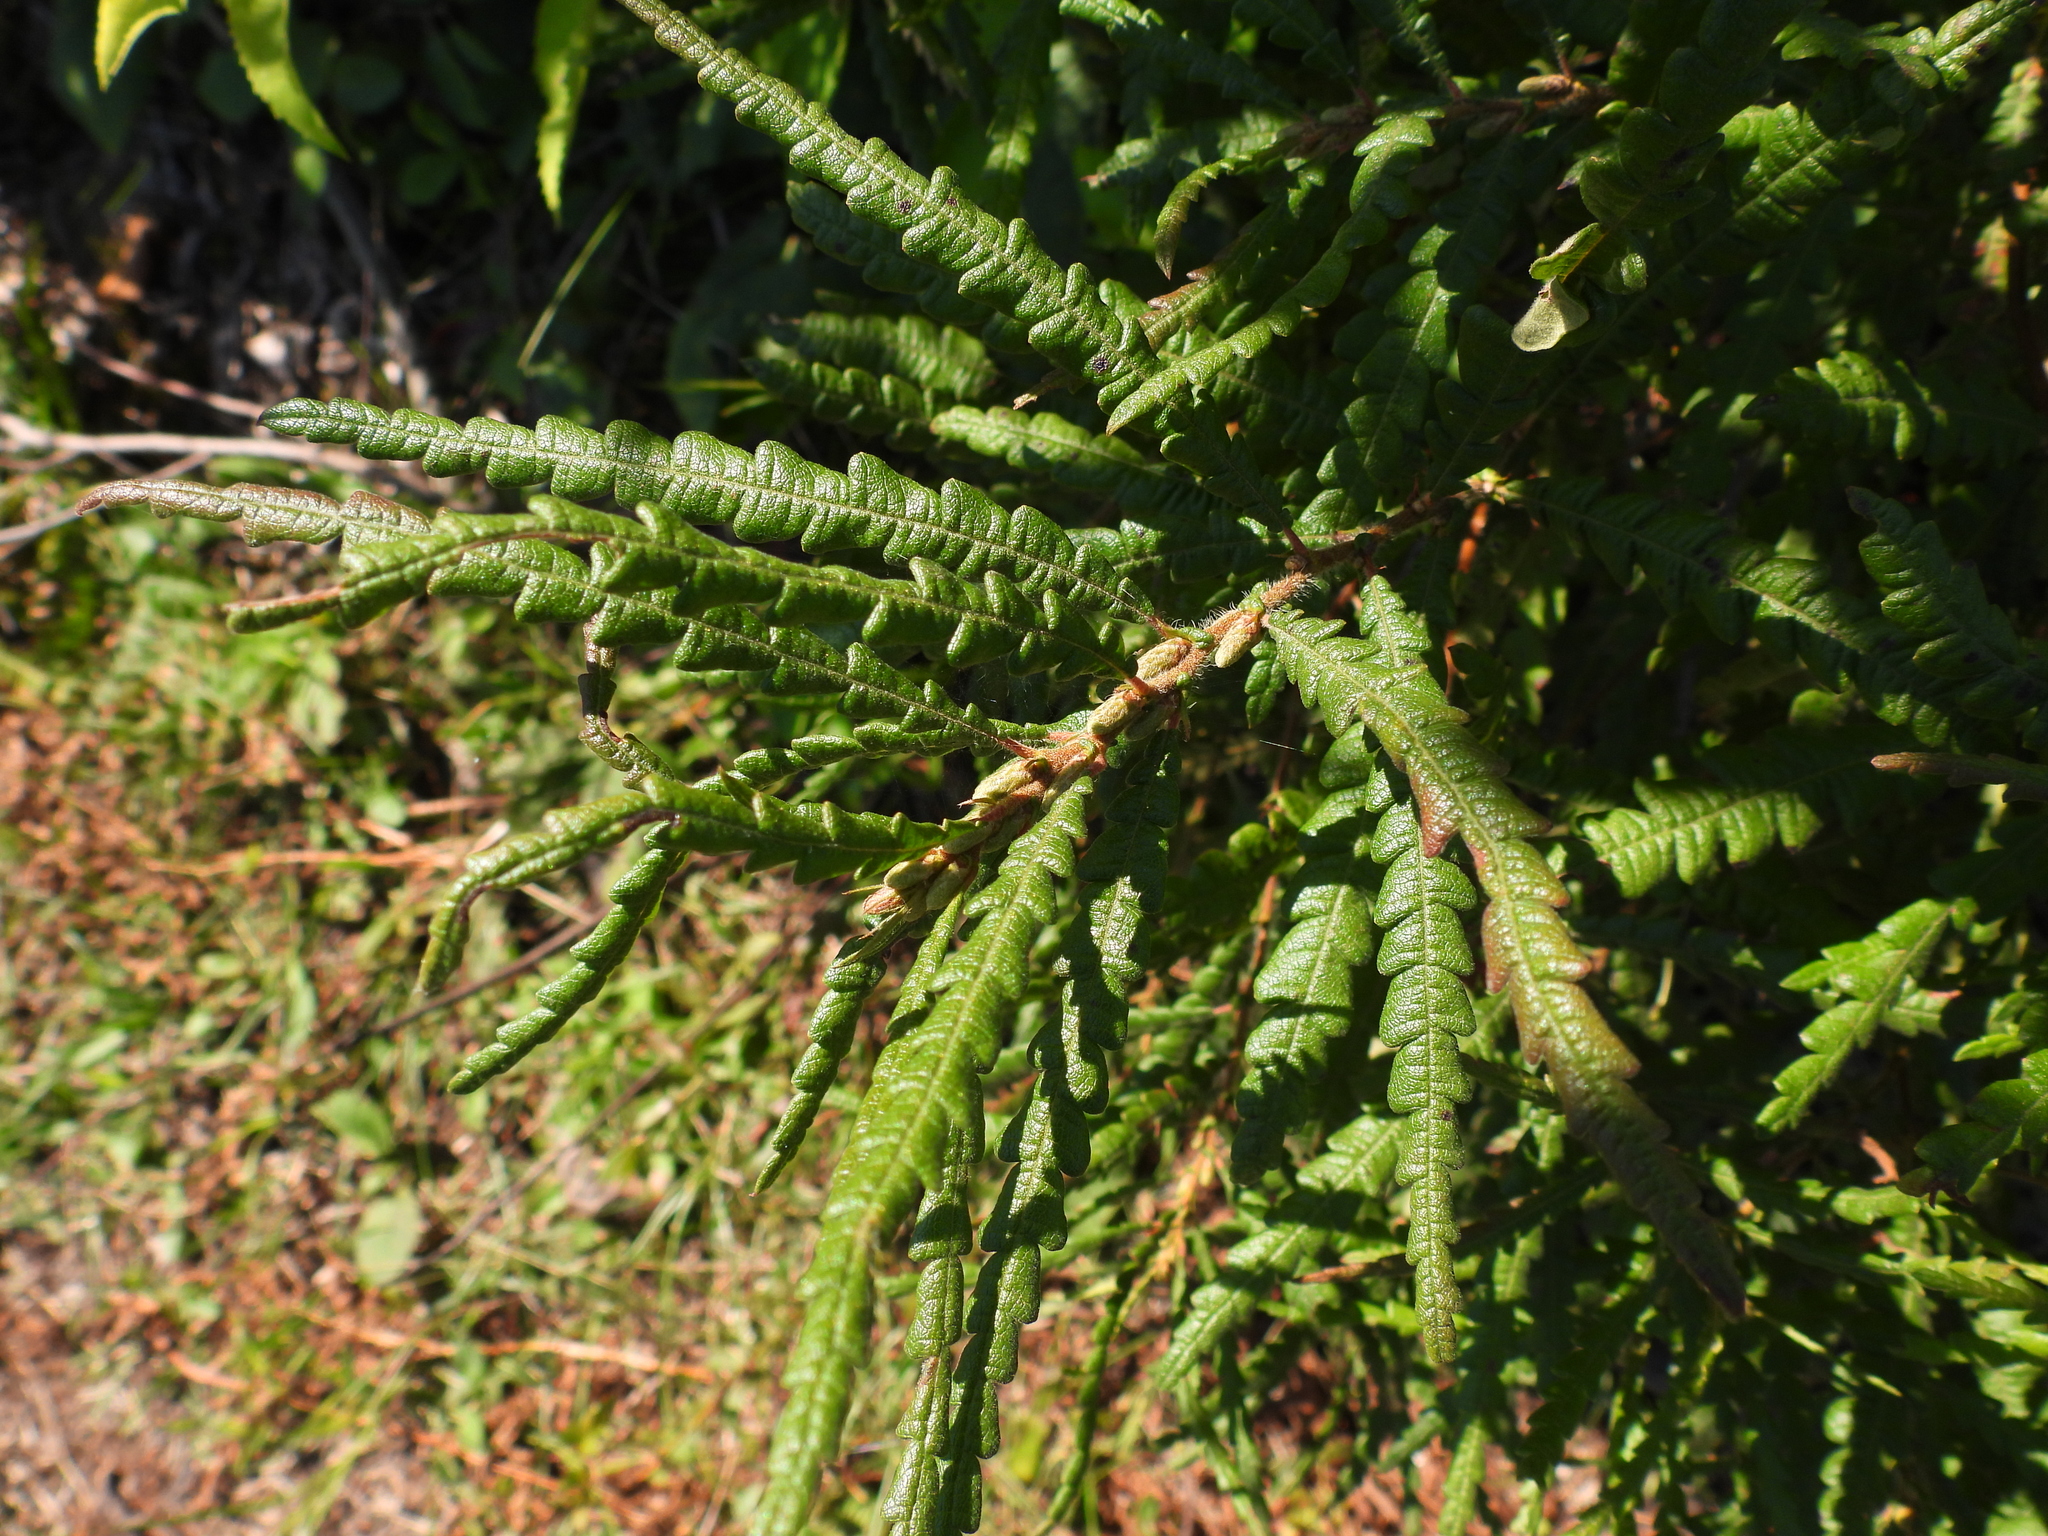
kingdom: Plantae
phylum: Tracheophyta
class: Magnoliopsida
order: Fagales
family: Myricaceae
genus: Comptonia
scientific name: Comptonia peregrina
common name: Sweet-fern
